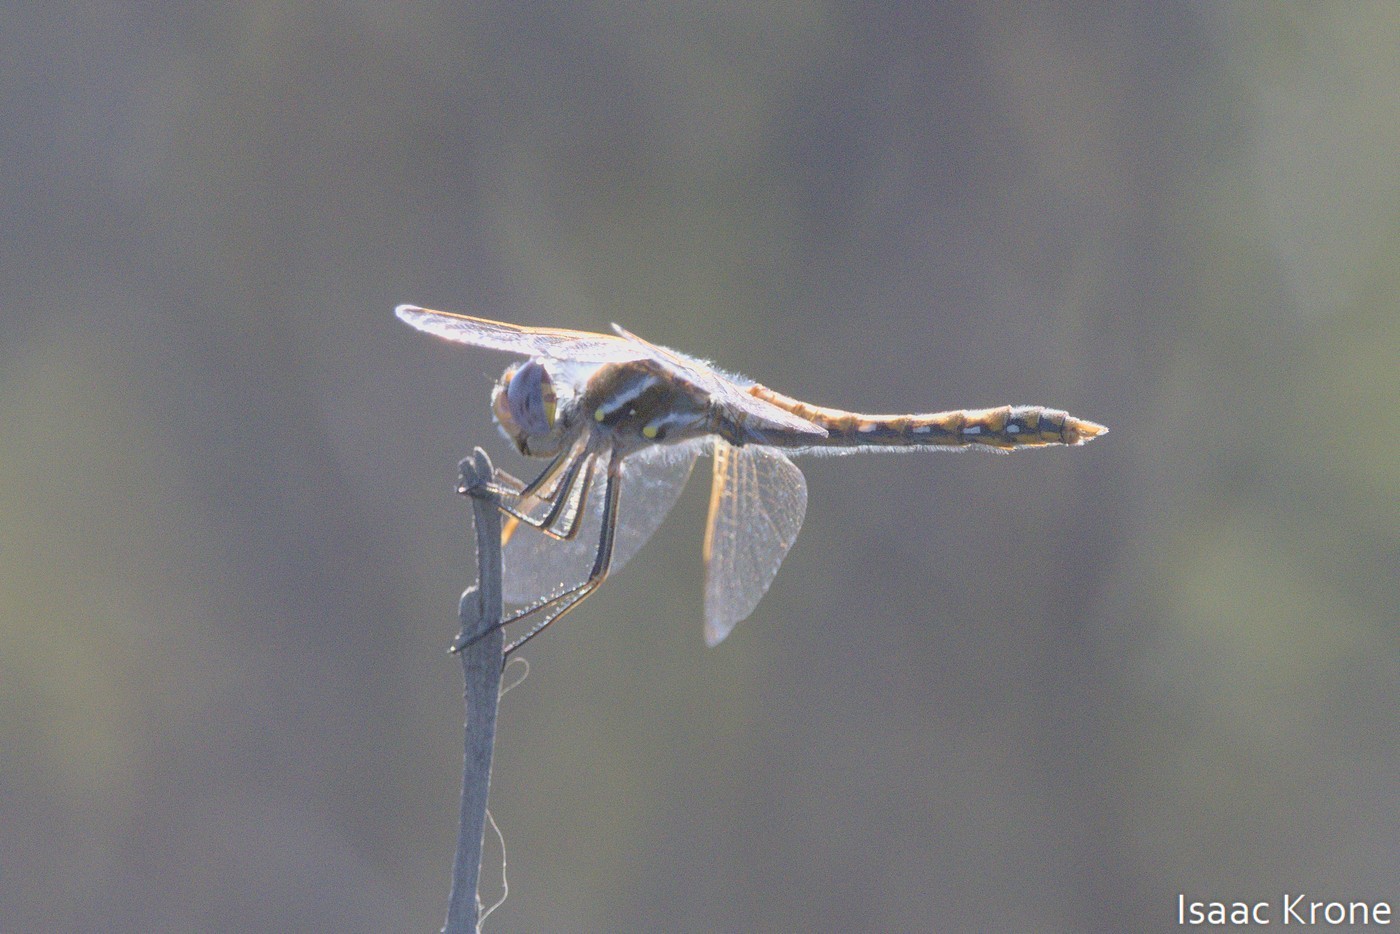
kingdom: Animalia
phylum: Arthropoda
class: Insecta
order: Odonata
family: Libellulidae
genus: Sympetrum
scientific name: Sympetrum corruptum
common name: Variegated meadowhawk
